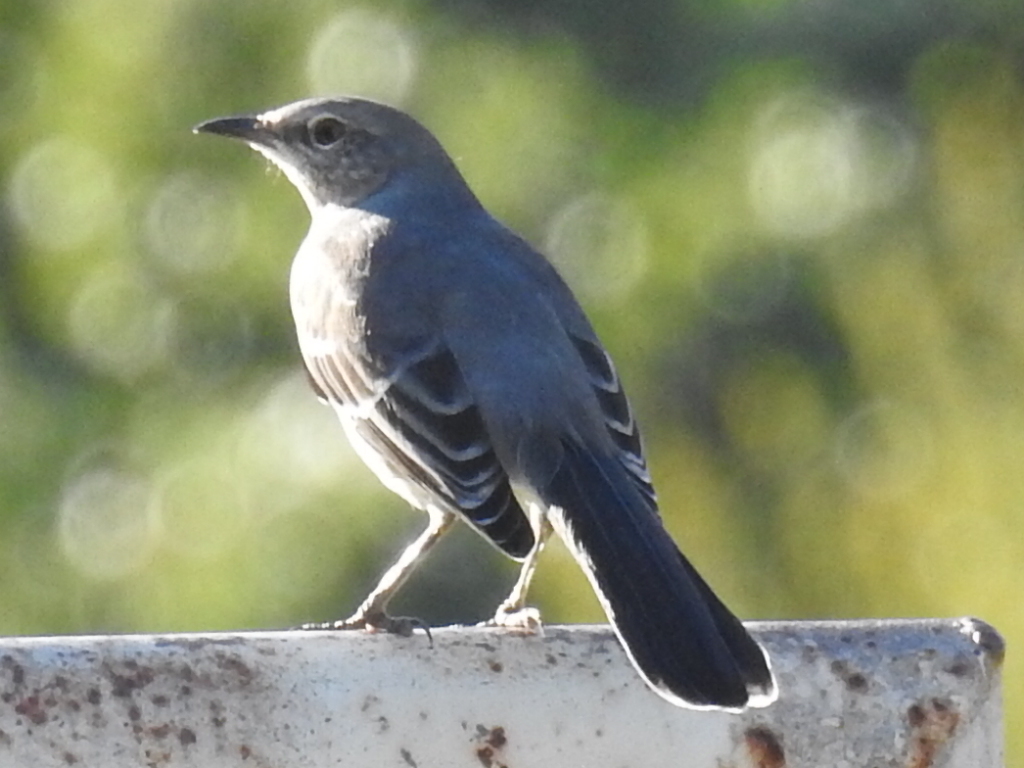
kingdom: Animalia
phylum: Chordata
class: Aves
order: Passeriformes
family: Mimidae
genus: Mimus
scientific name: Mimus polyglottos
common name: Northern mockingbird
